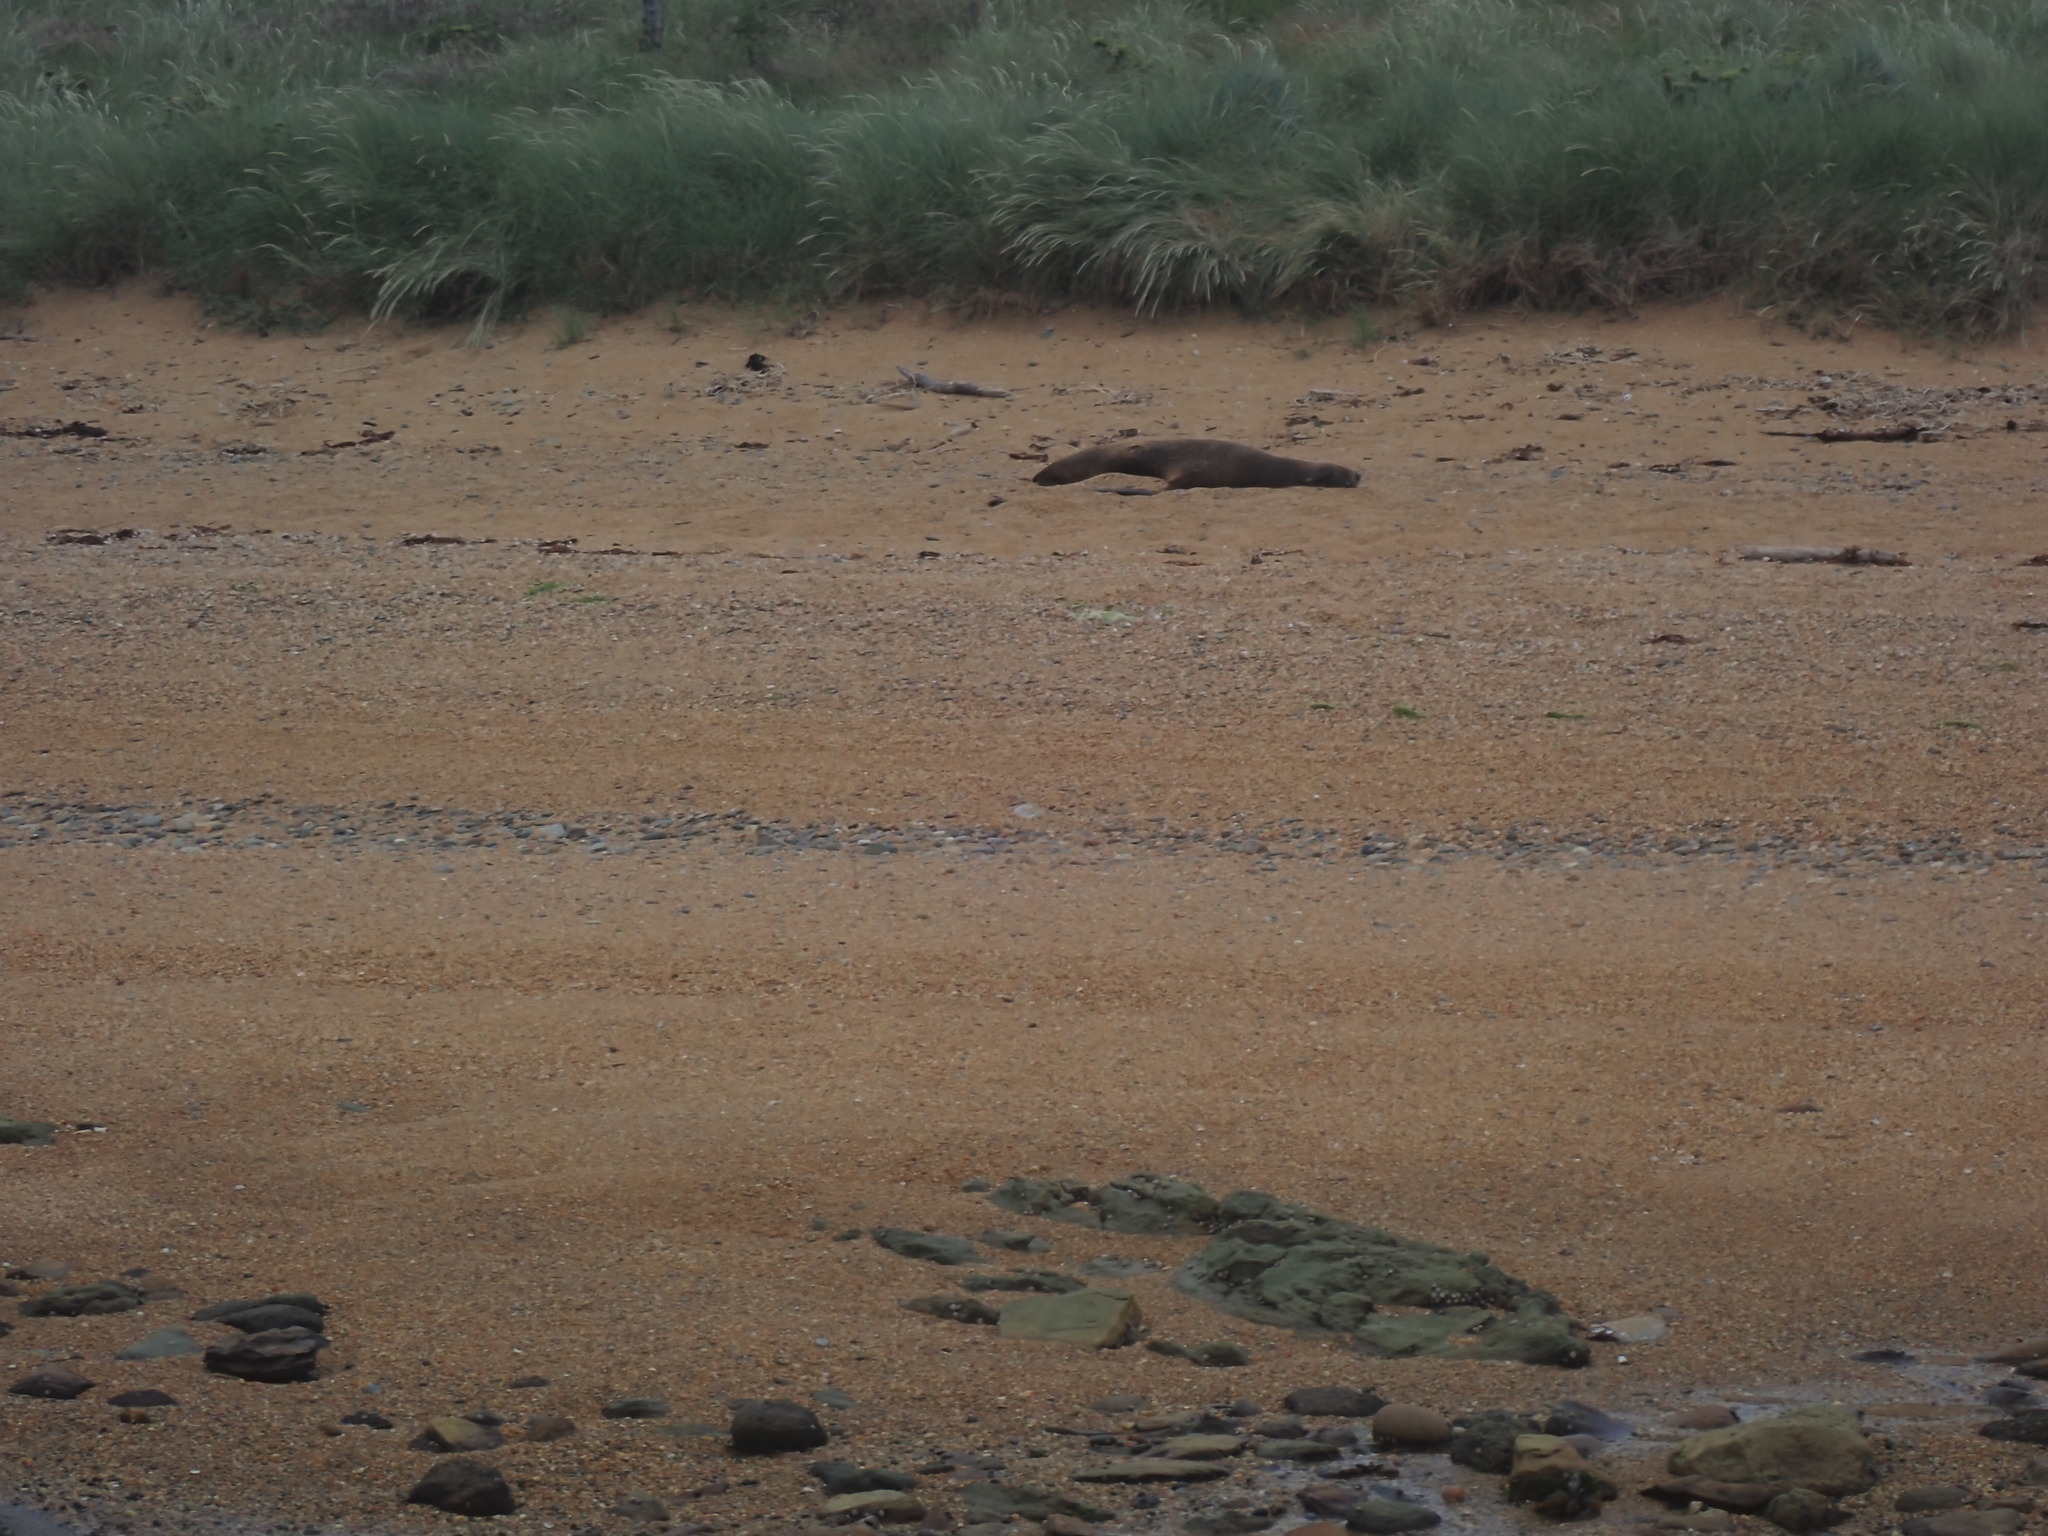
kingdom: Animalia
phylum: Chordata
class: Mammalia
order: Carnivora
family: Otariidae
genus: Phocarctos
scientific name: Phocarctos hookeri
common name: New zealand sea lion
